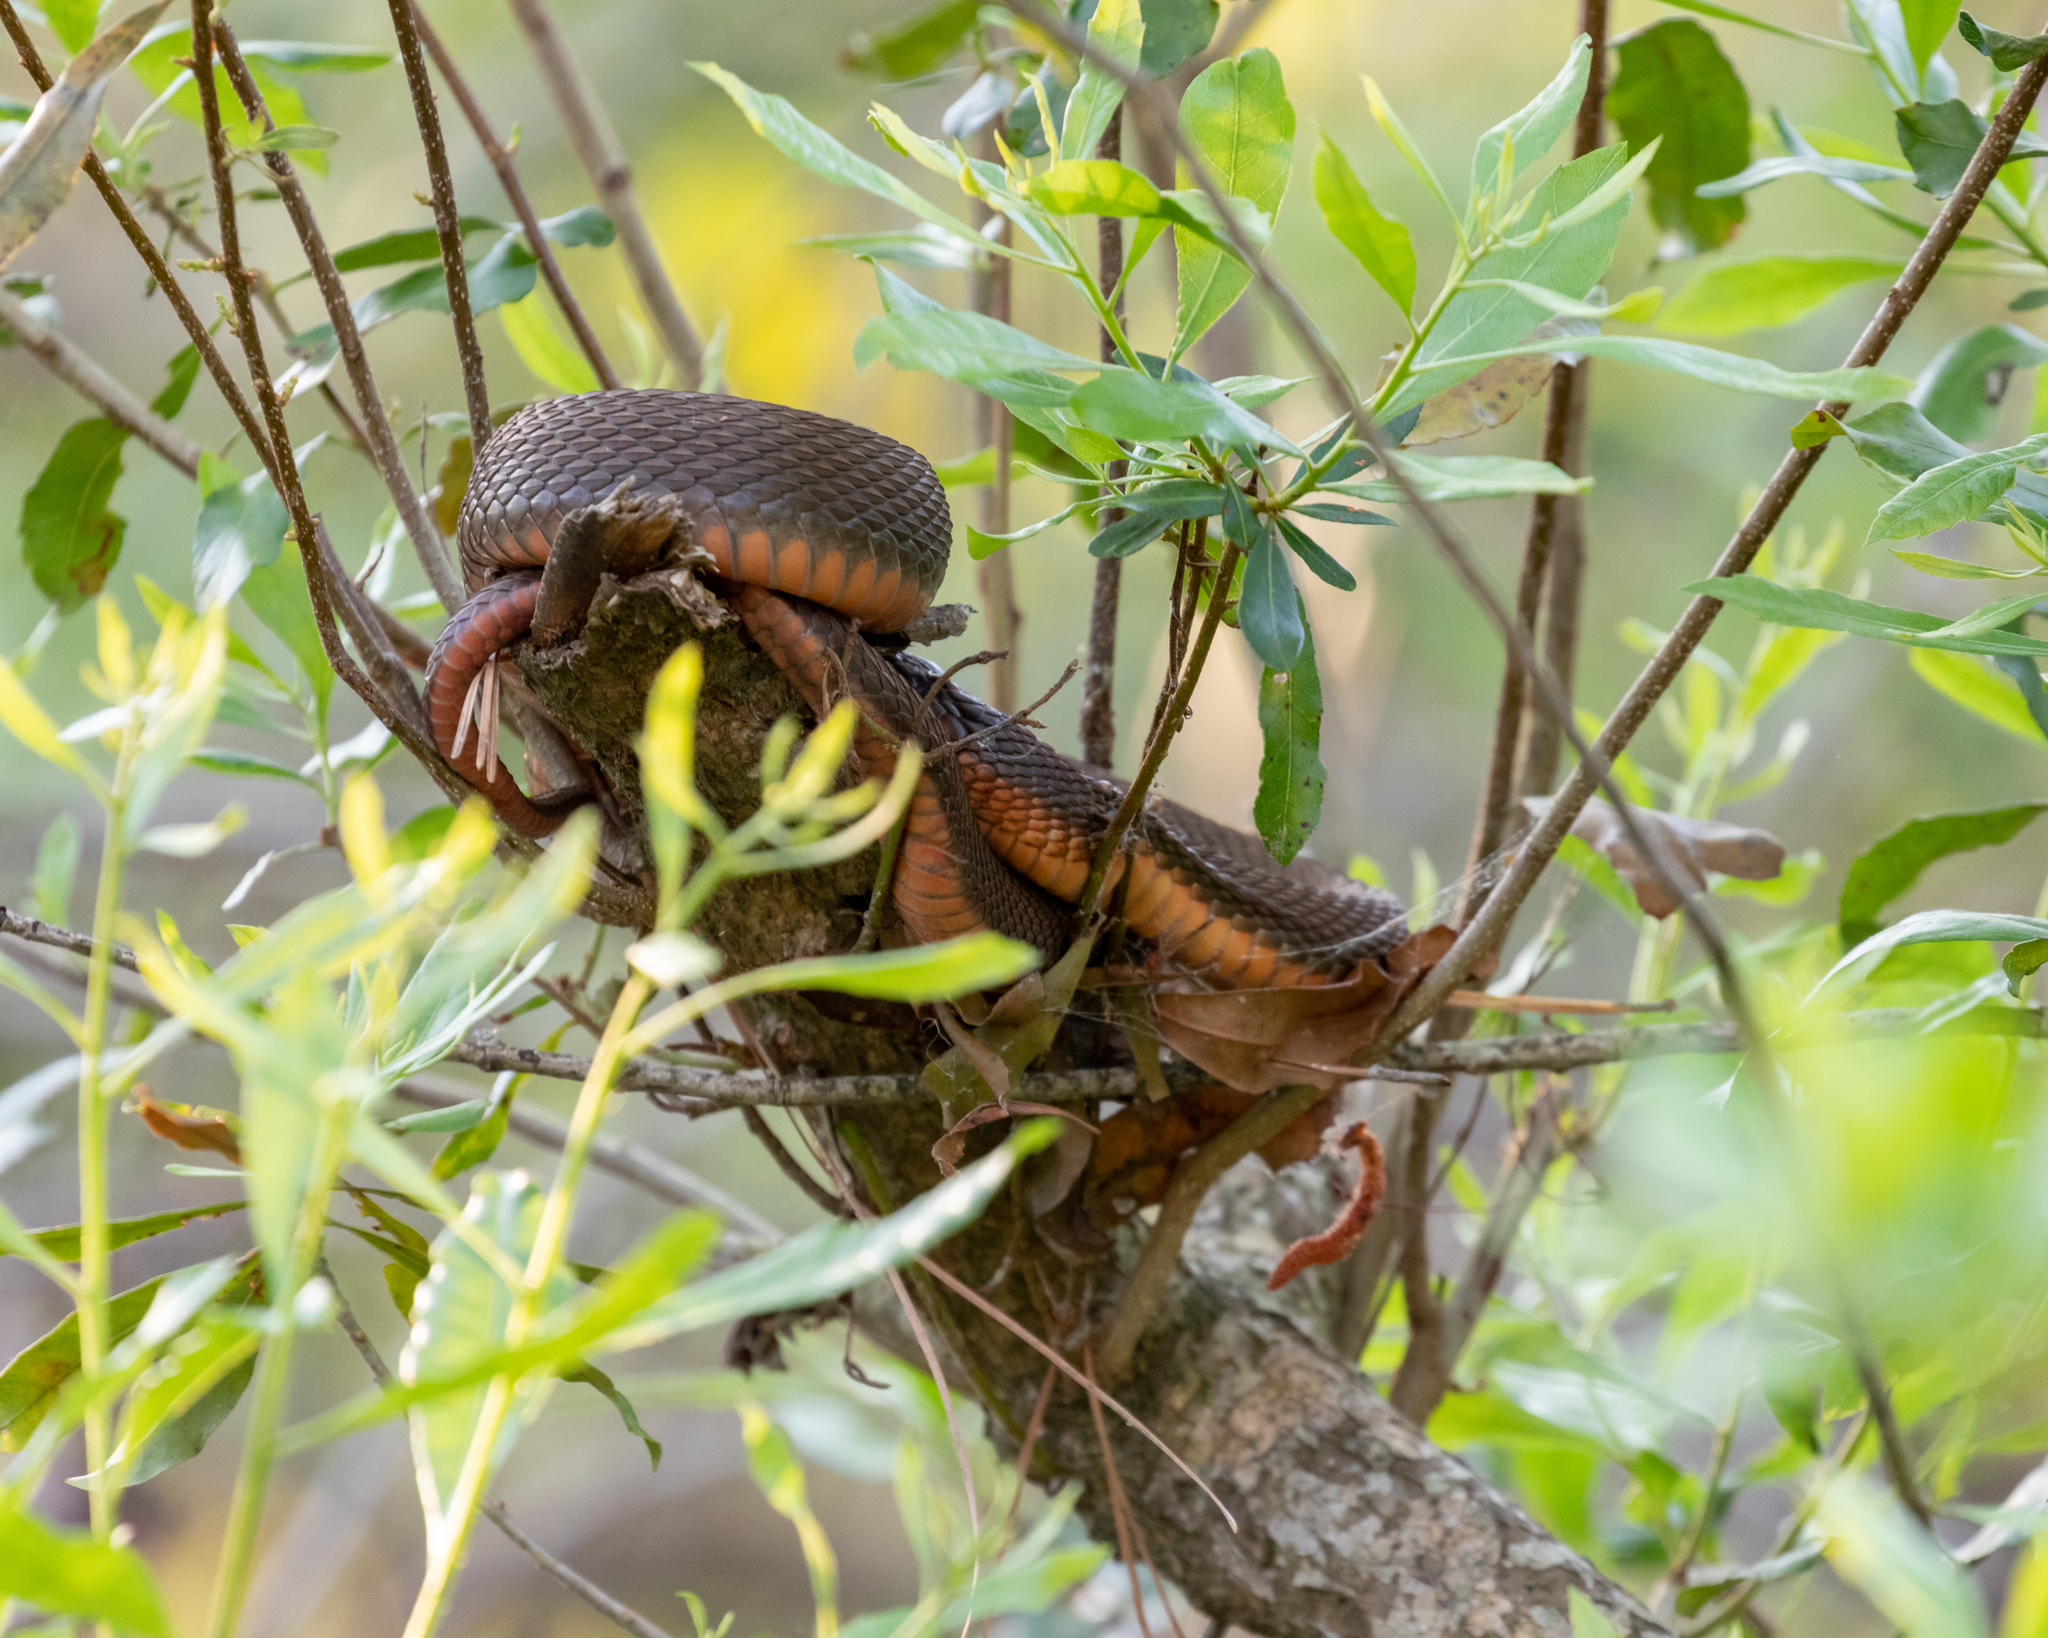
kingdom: Animalia
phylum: Chordata
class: Squamata
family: Colubridae
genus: Nerodia
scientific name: Nerodia erythrogaster
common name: Plainbelly water snake
